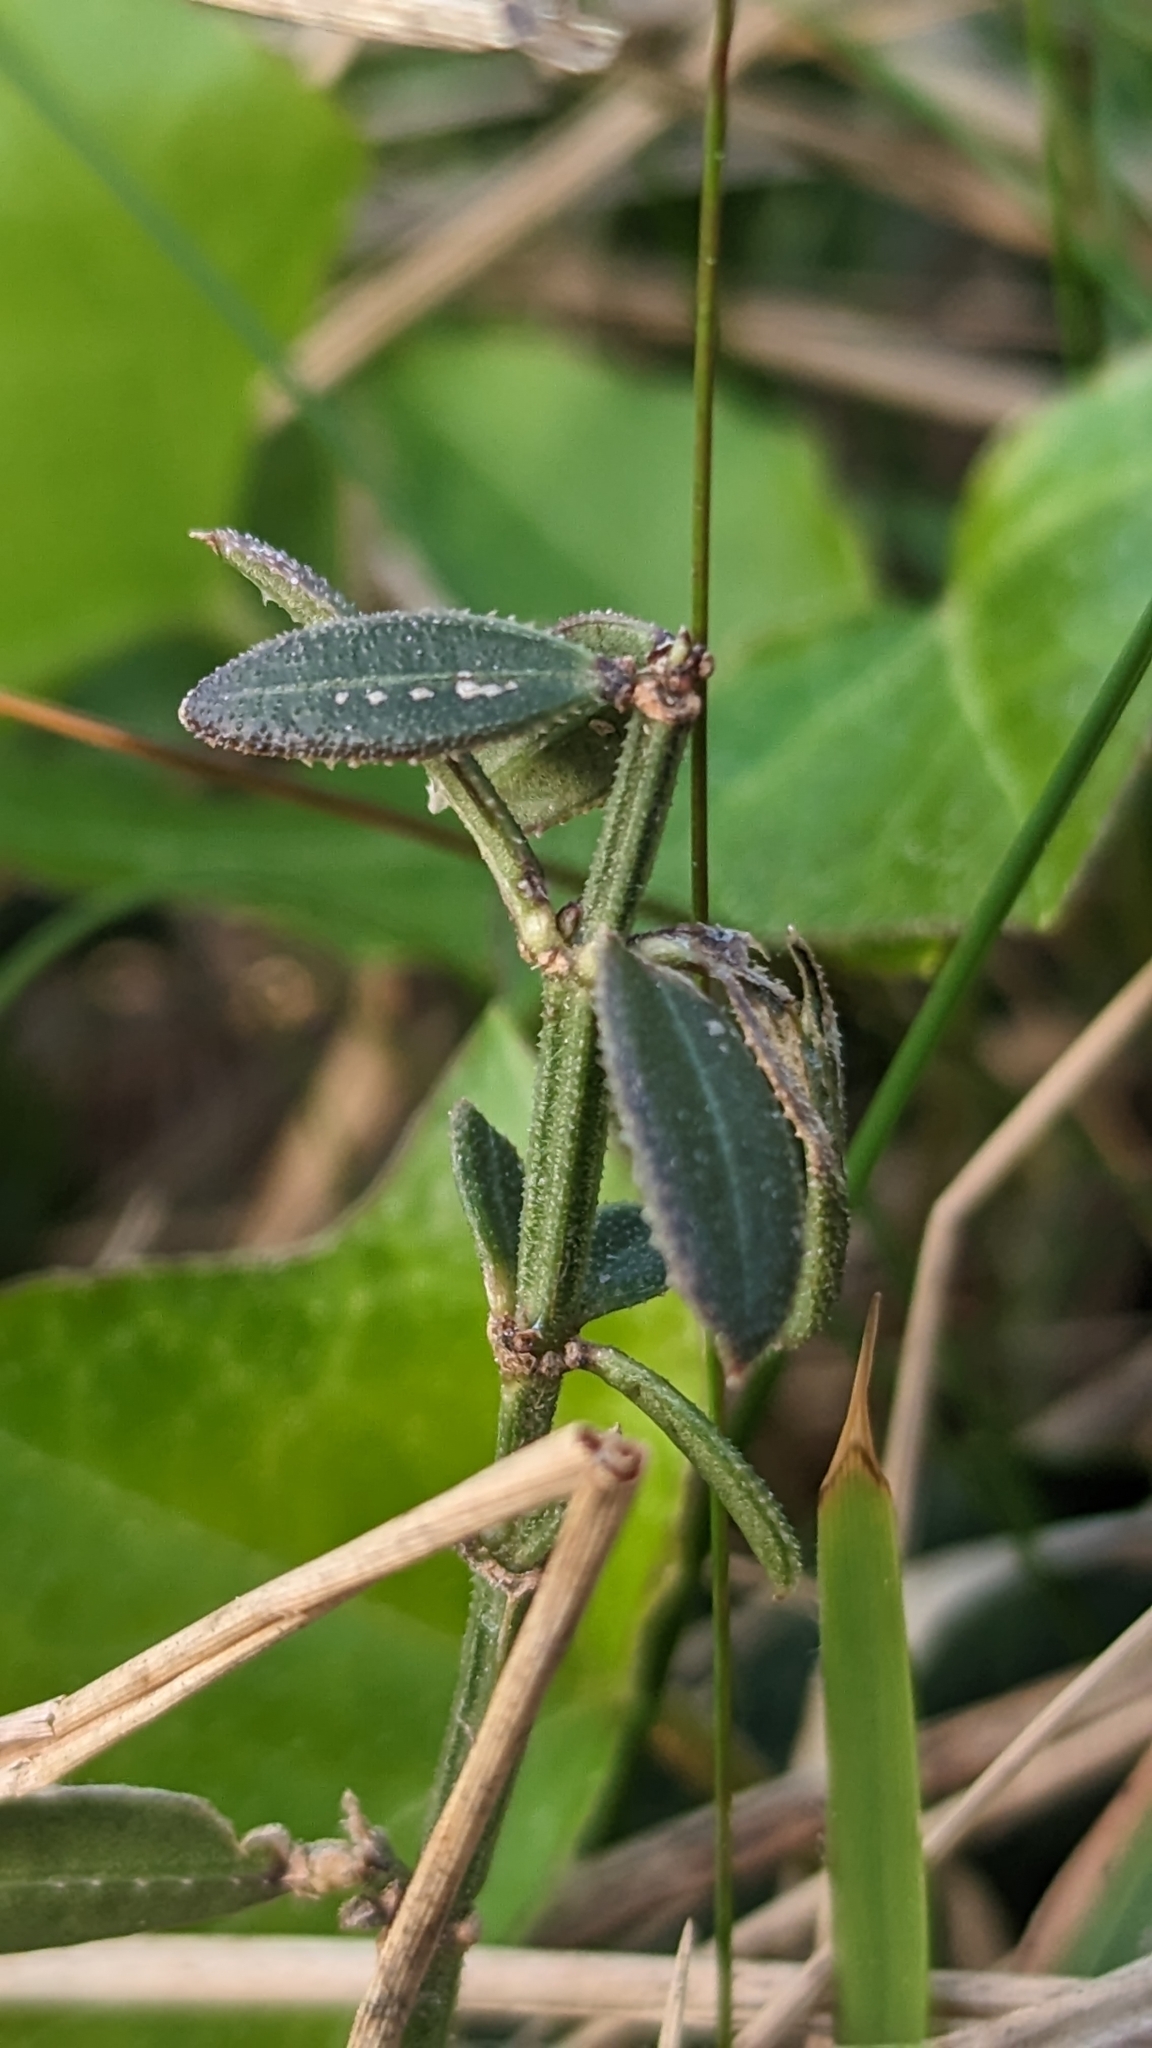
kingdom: Plantae
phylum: Tracheophyta
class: Magnoliopsida
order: Gentianales
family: Rubiaceae
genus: Rubia
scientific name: Rubia peregrina
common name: Wild madder
